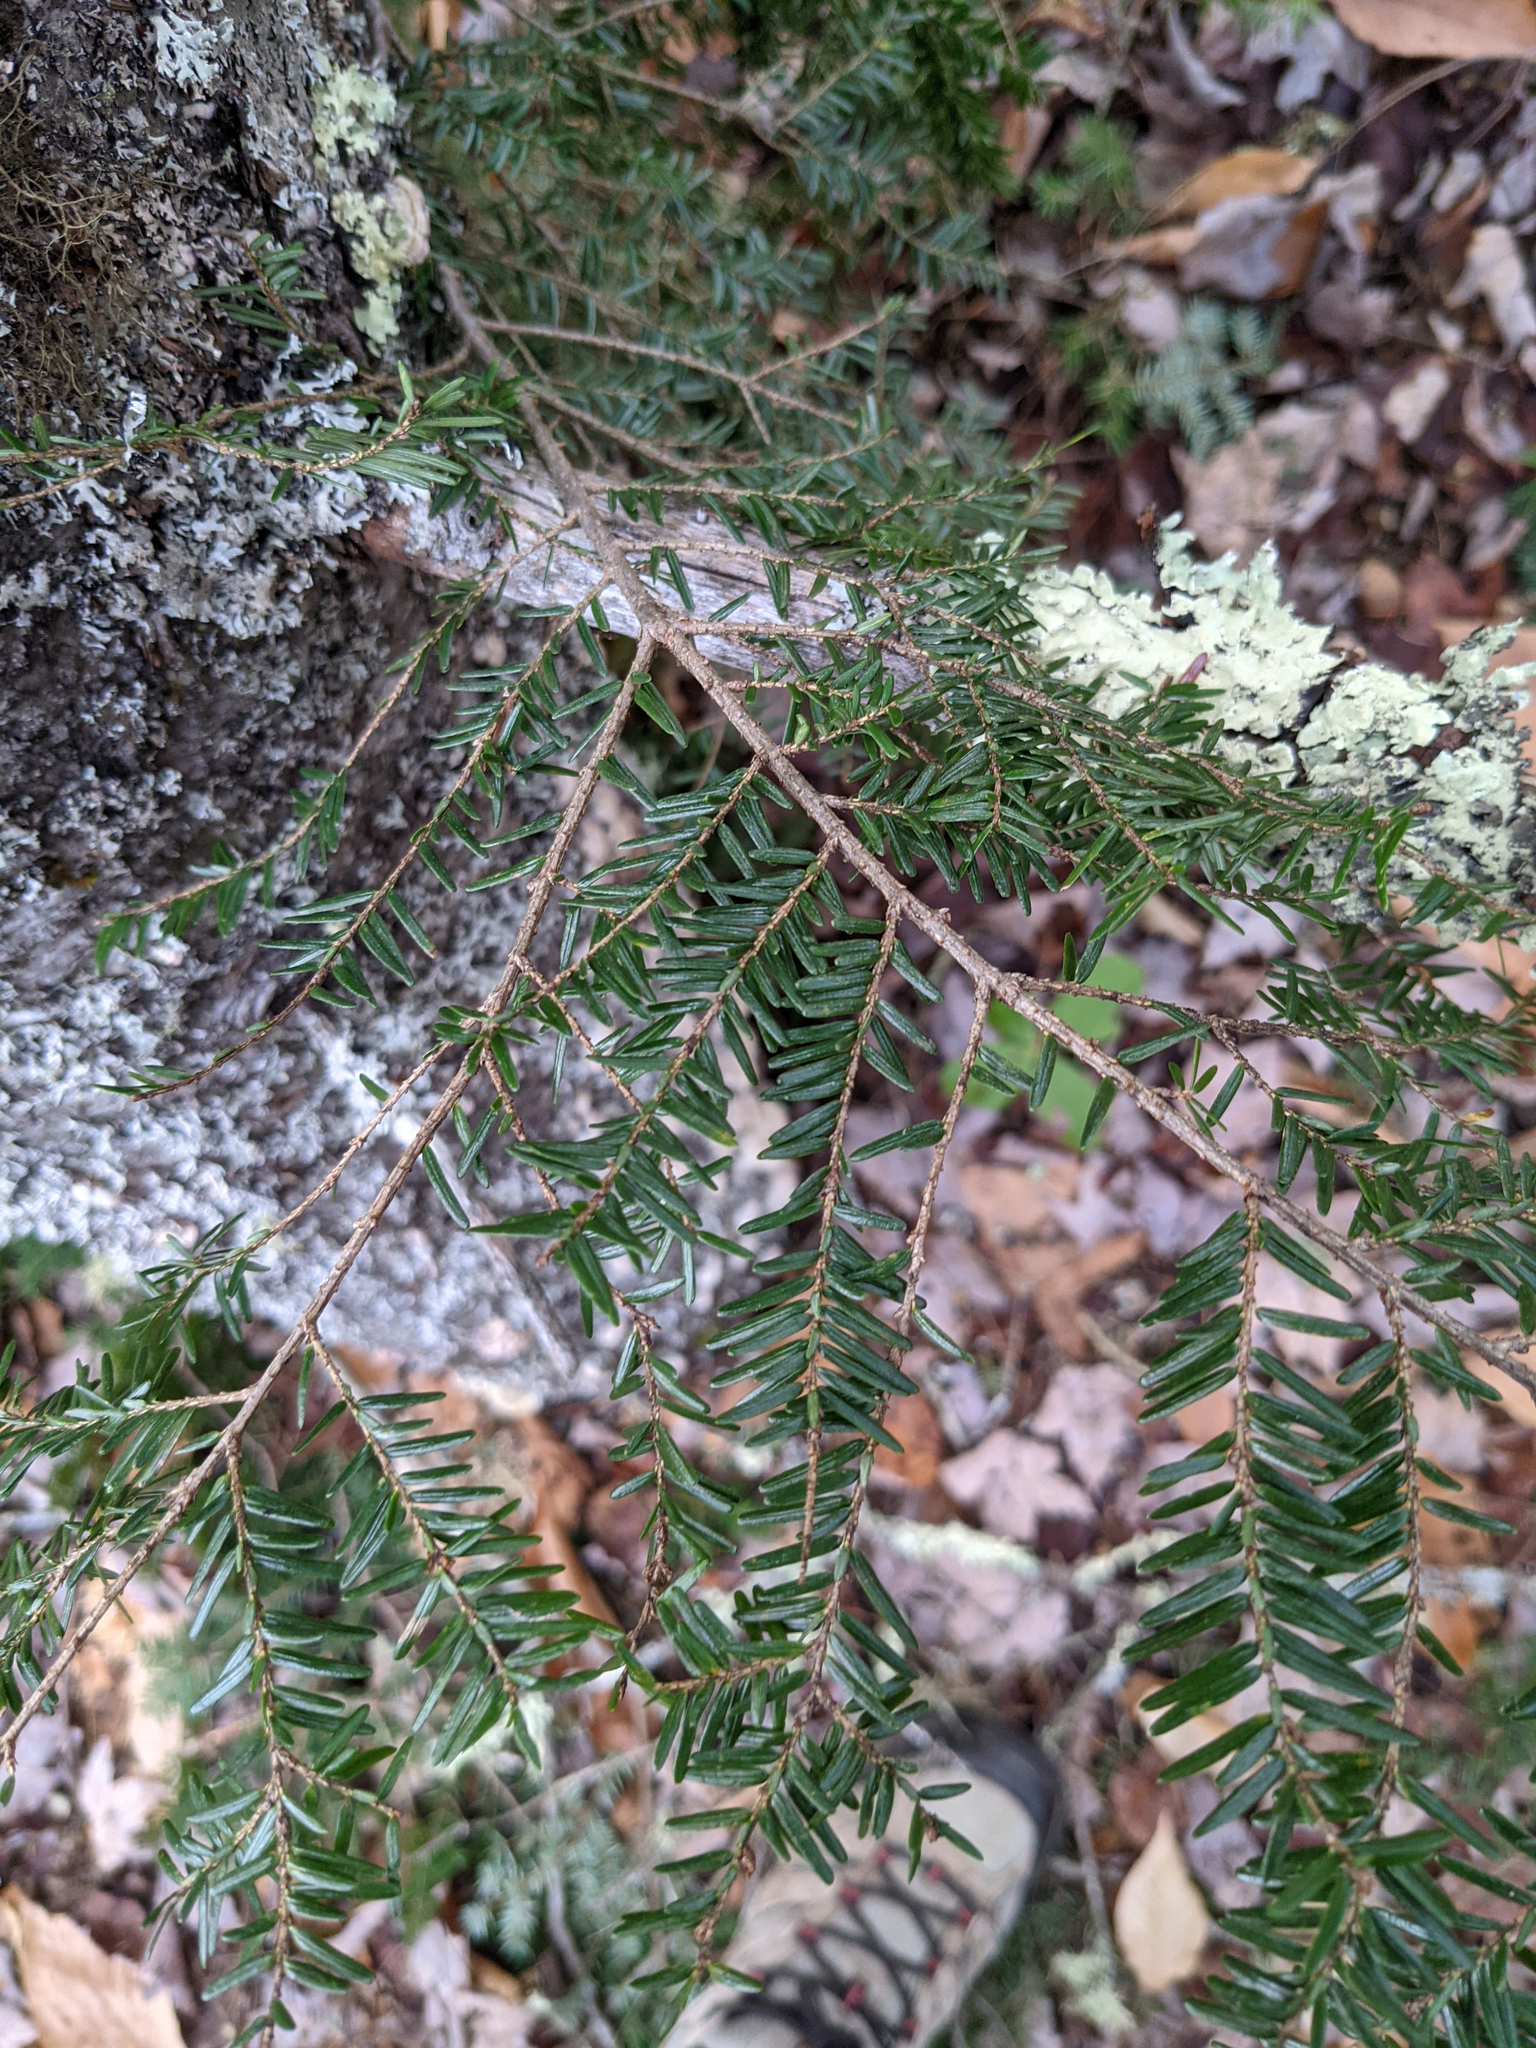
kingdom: Plantae
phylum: Tracheophyta
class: Pinopsida
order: Pinales
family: Pinaceae
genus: Tsuga
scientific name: Tsuga canadensis
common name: Eastern hemlock
